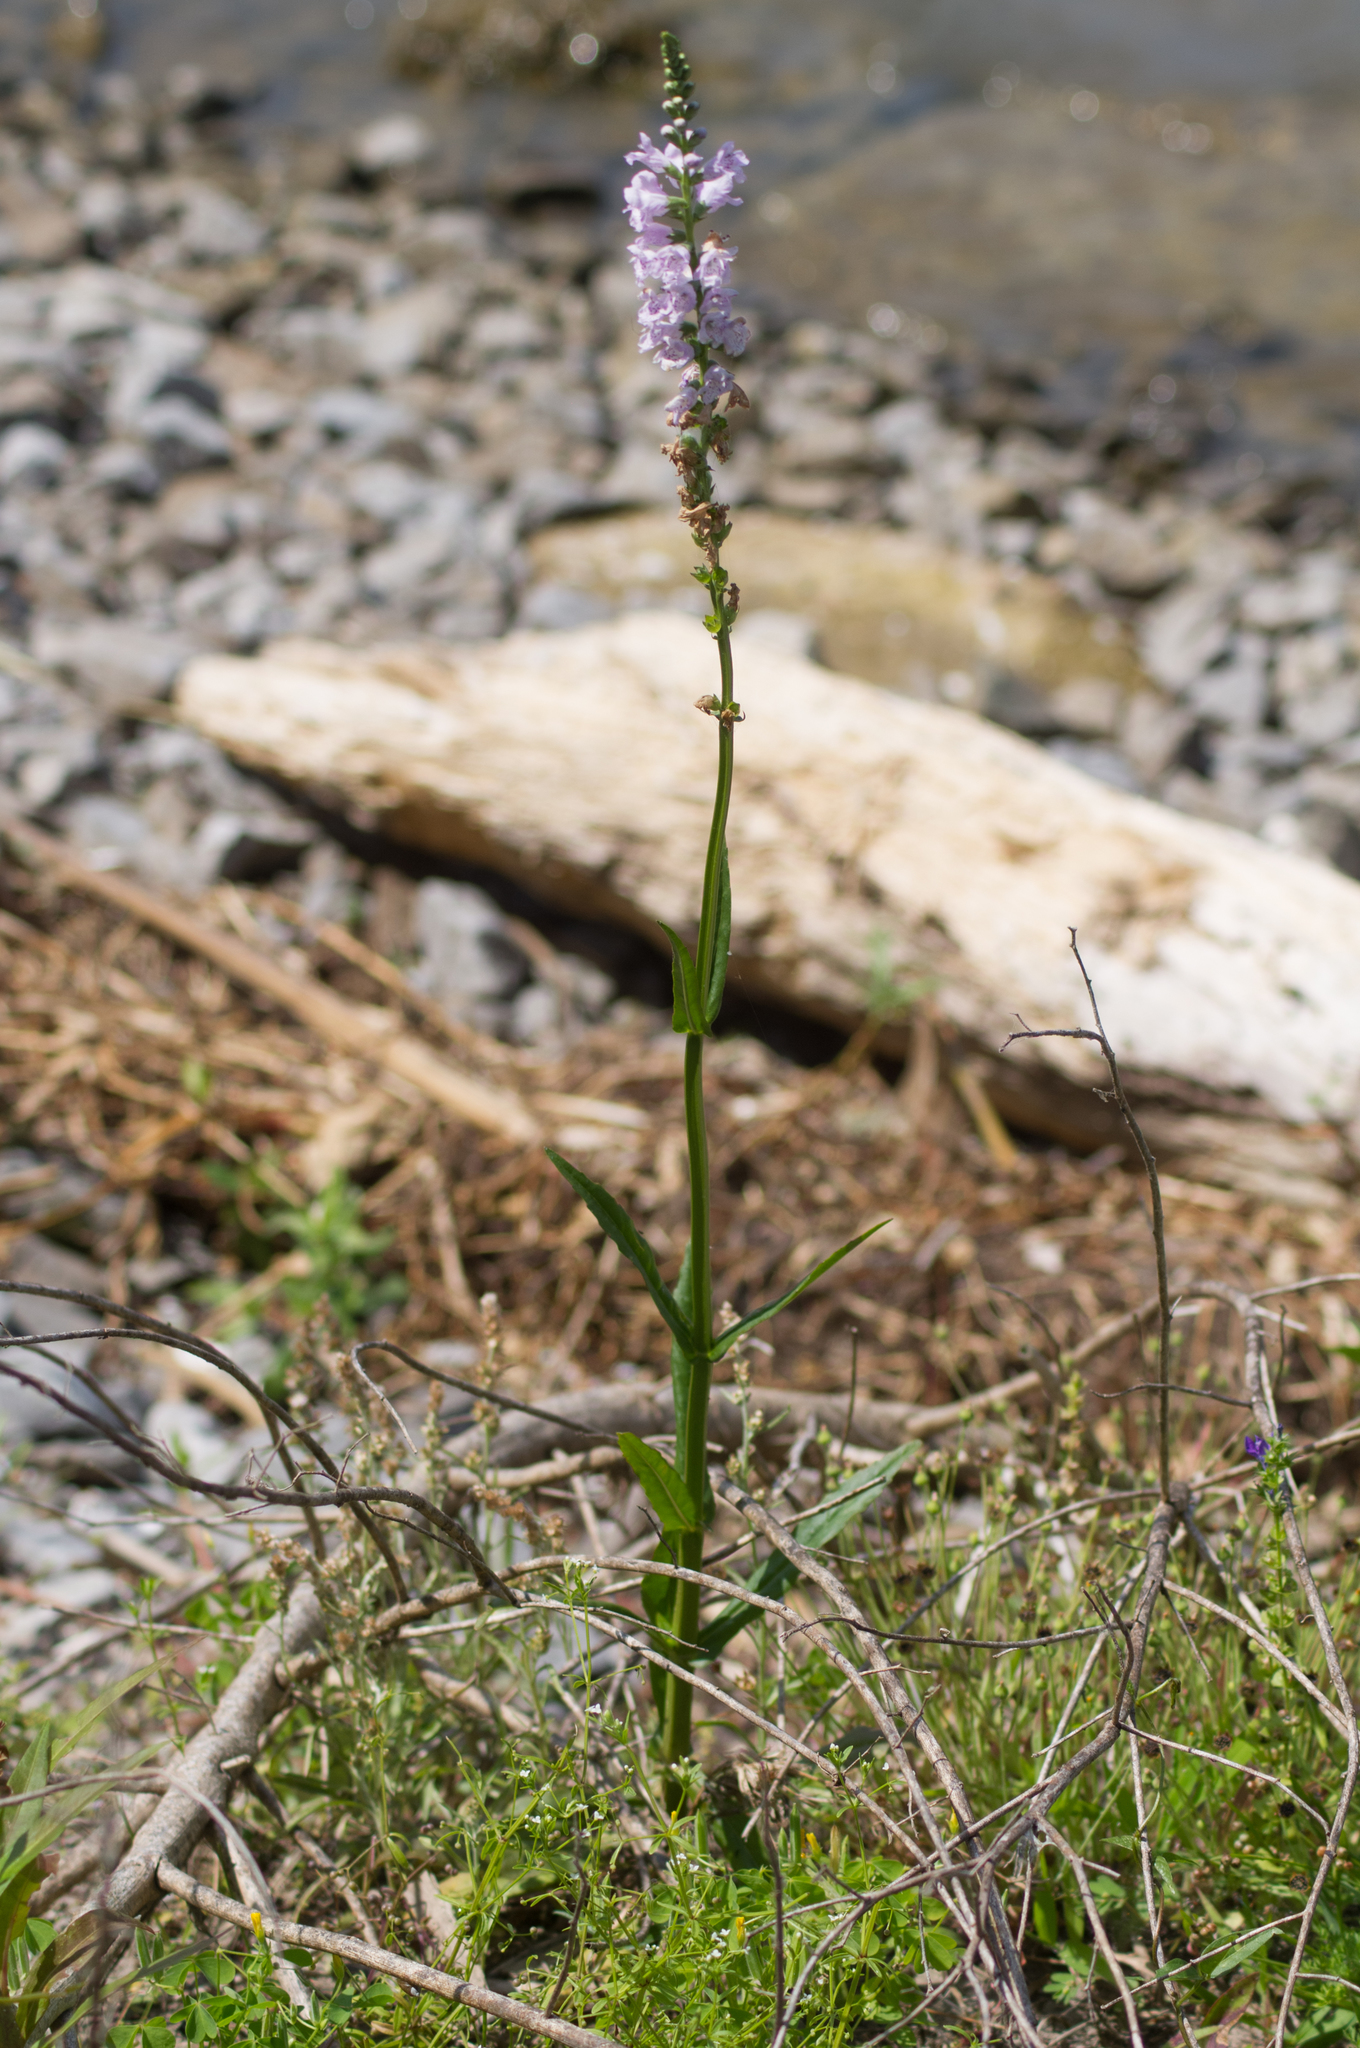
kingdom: Plantae
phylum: Tracheophyta
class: Magnoliopsida
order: Lamiales
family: Lamiaceae
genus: Physostegia
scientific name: Physostegia intermedia
